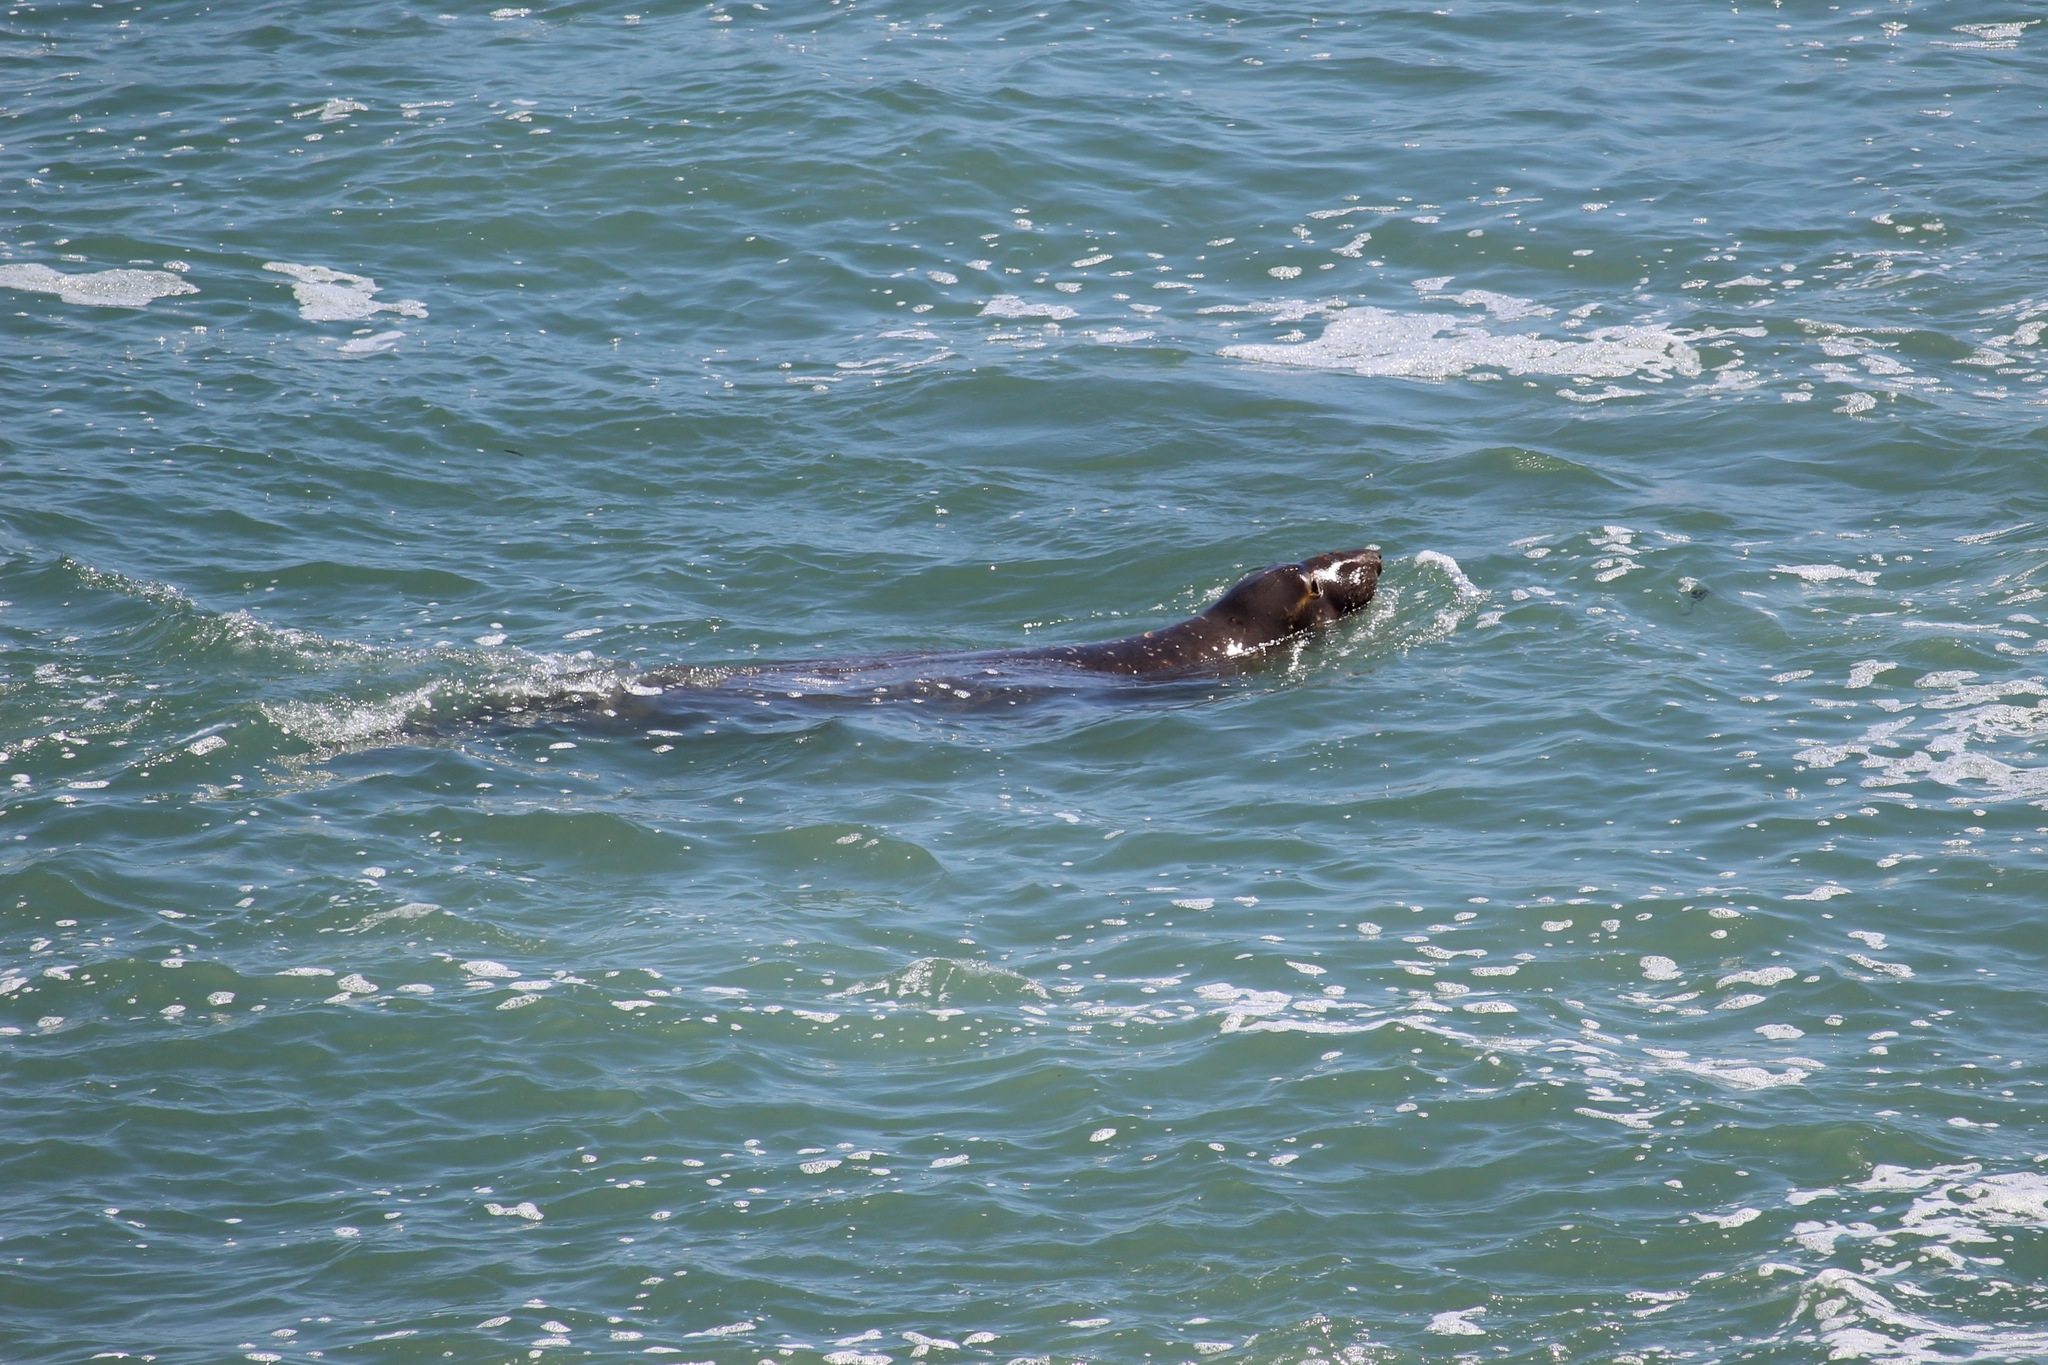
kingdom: Animalia
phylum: Chordata
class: Mammalia
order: Carnivora
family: Phocidae
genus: Mirounga
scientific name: Mirounga angustirostris
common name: Northern elephant seal
